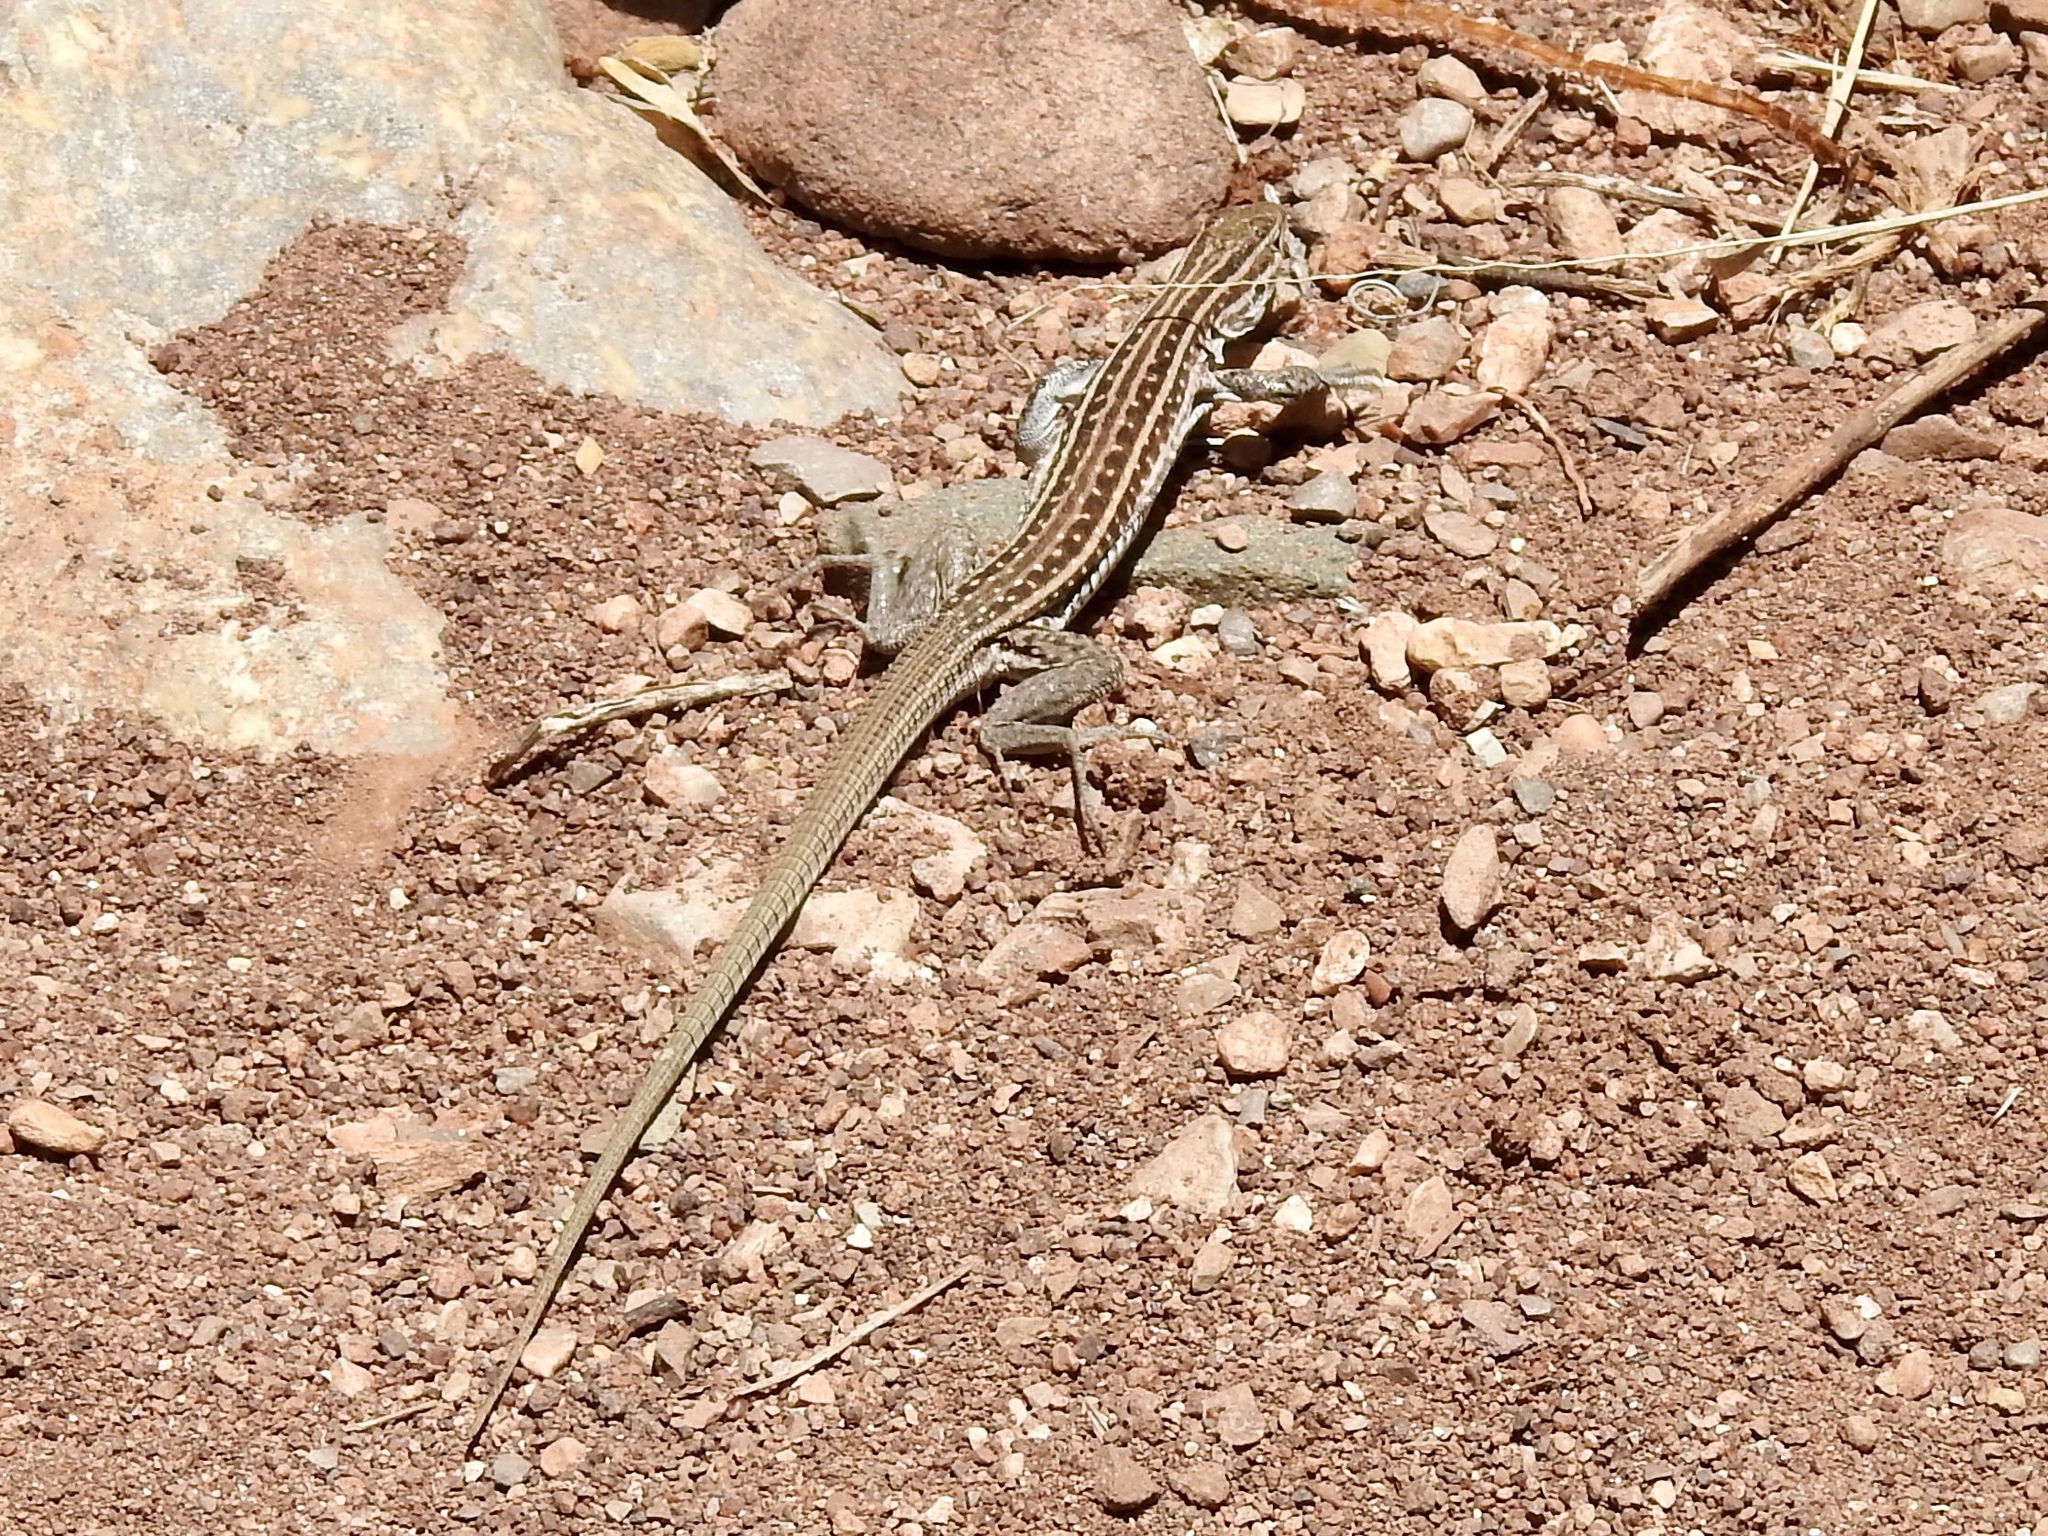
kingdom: Animalia
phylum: Chordata
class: Squamata
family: Teiidae
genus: Aspidoscelis
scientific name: Aspidoscelis exsanguis
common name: Chihuahuan spotted whiptail
